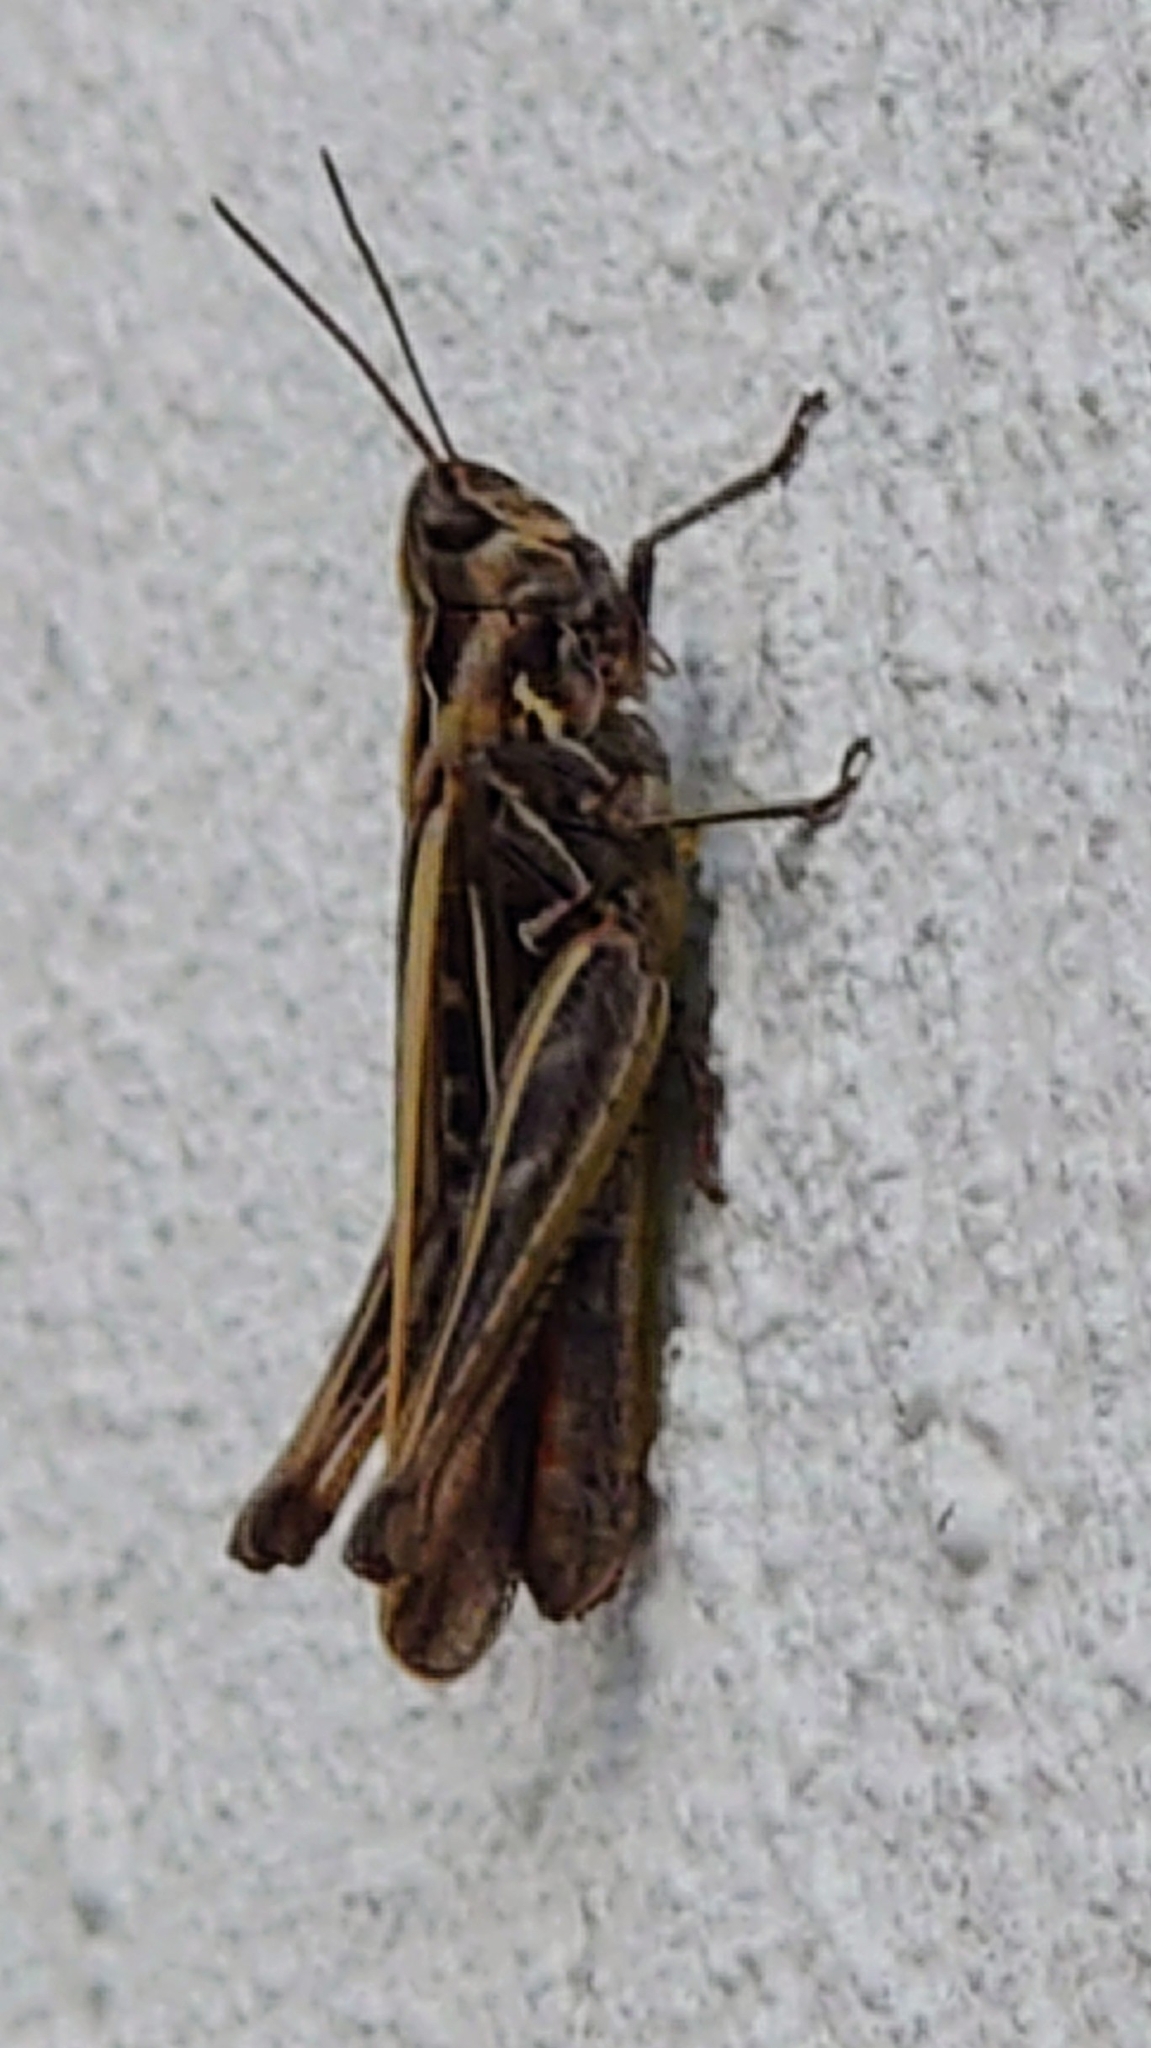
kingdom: Animalia
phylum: Arthropoda
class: Insecta
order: Orthoptera
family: Acrididae
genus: Chorthippus
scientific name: Chorthippus brunneus
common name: Field grasshopper
